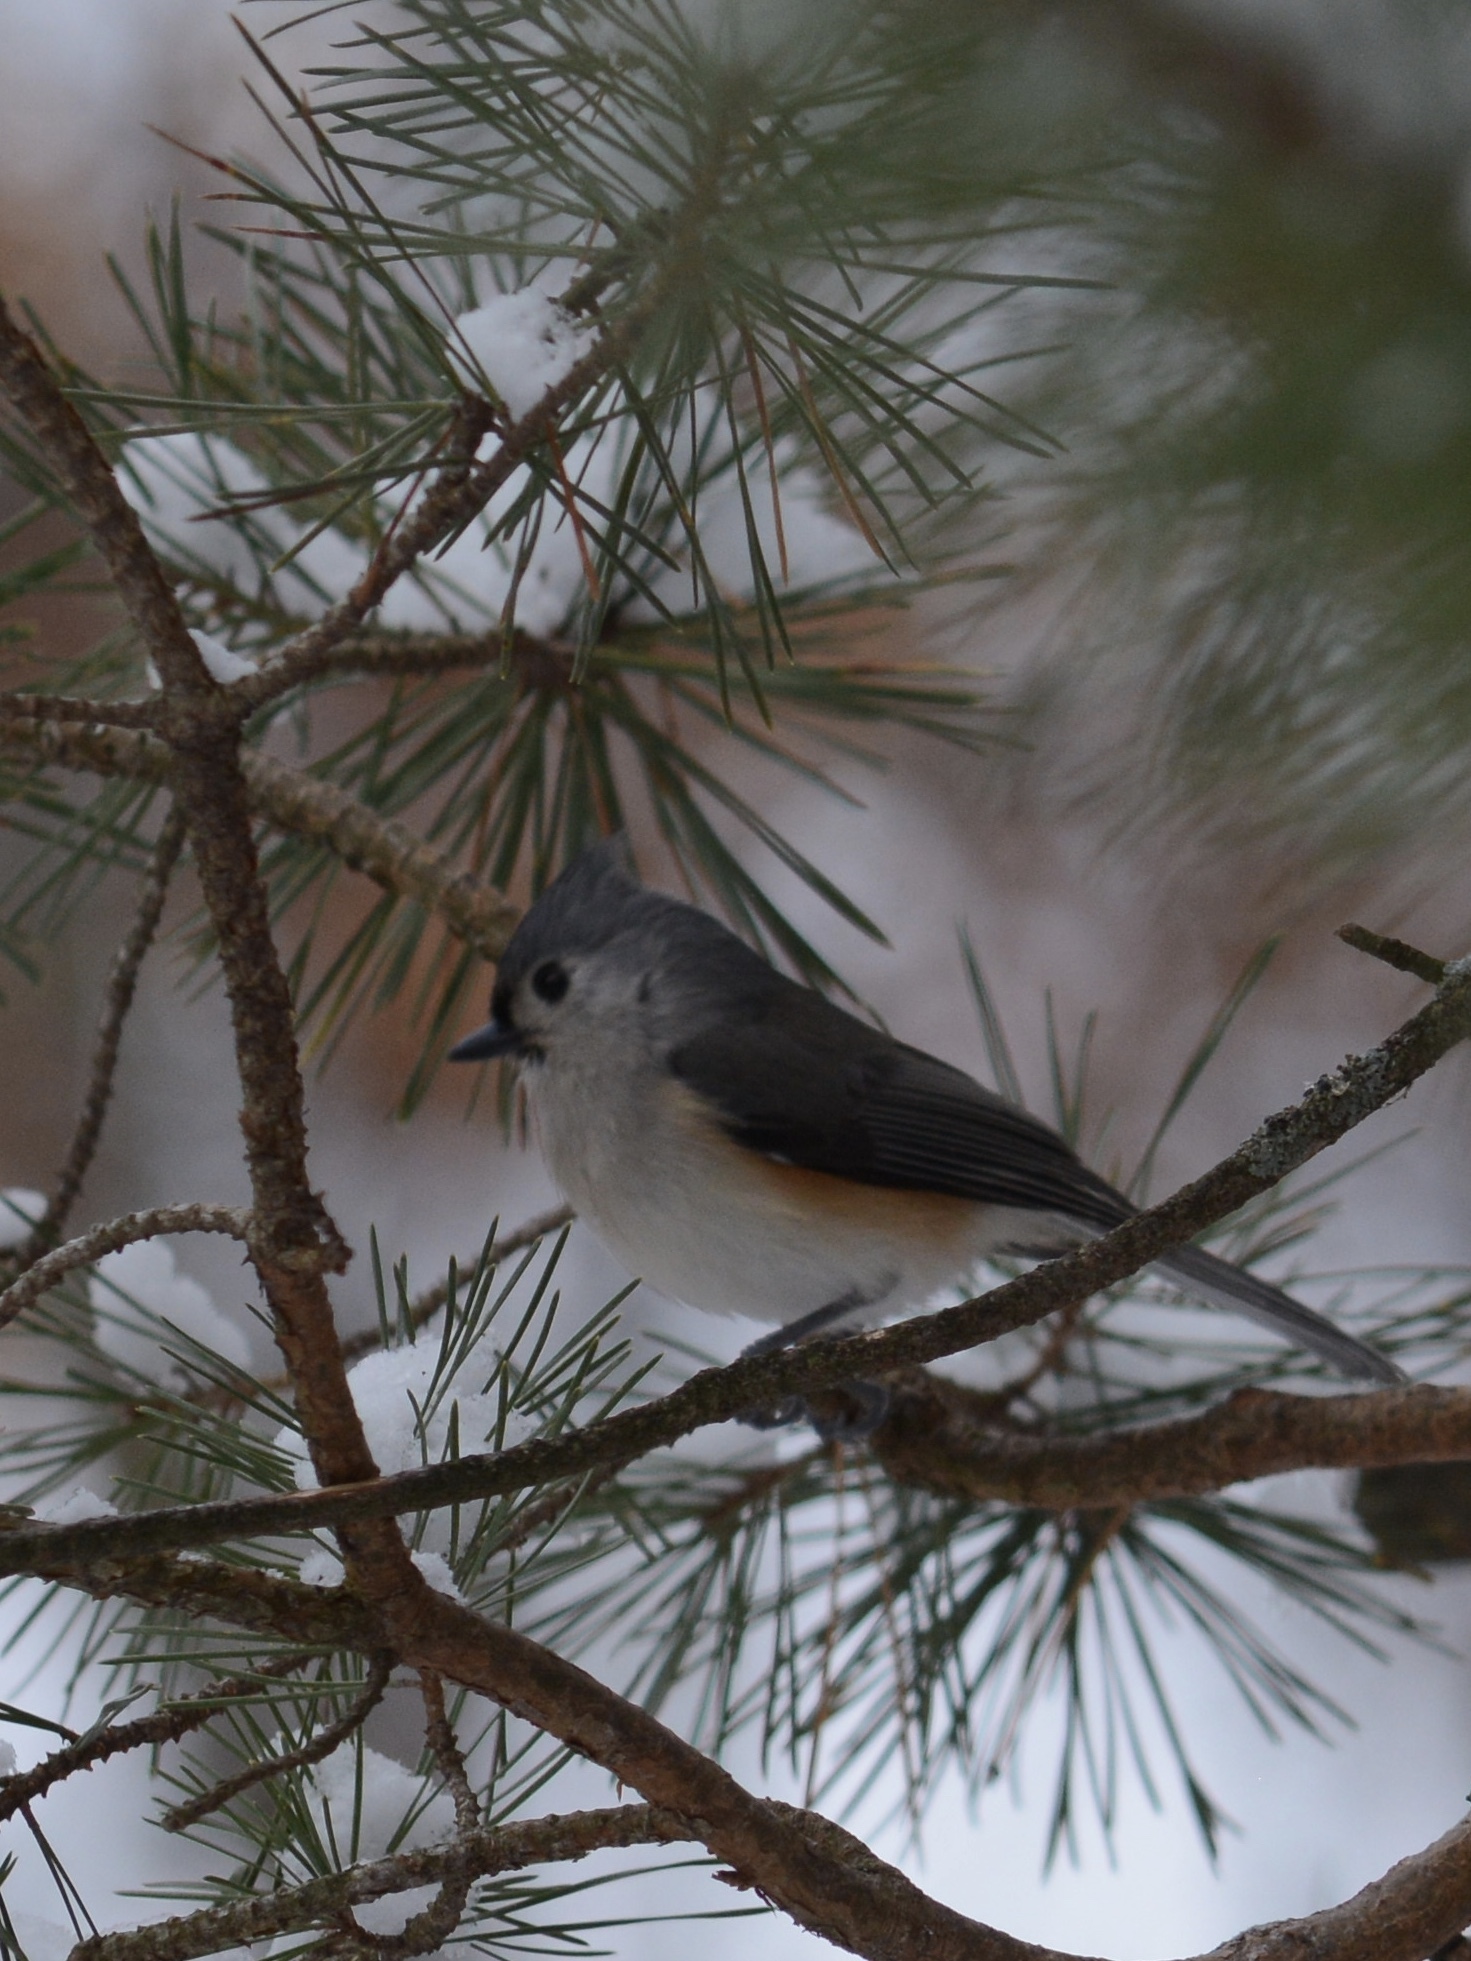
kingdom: Animalia
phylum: Chordata
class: Aves
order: Passeriformes
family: Paridae
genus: Baeolophus
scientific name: Baeolophus bicolor
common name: Tufted titmouse
